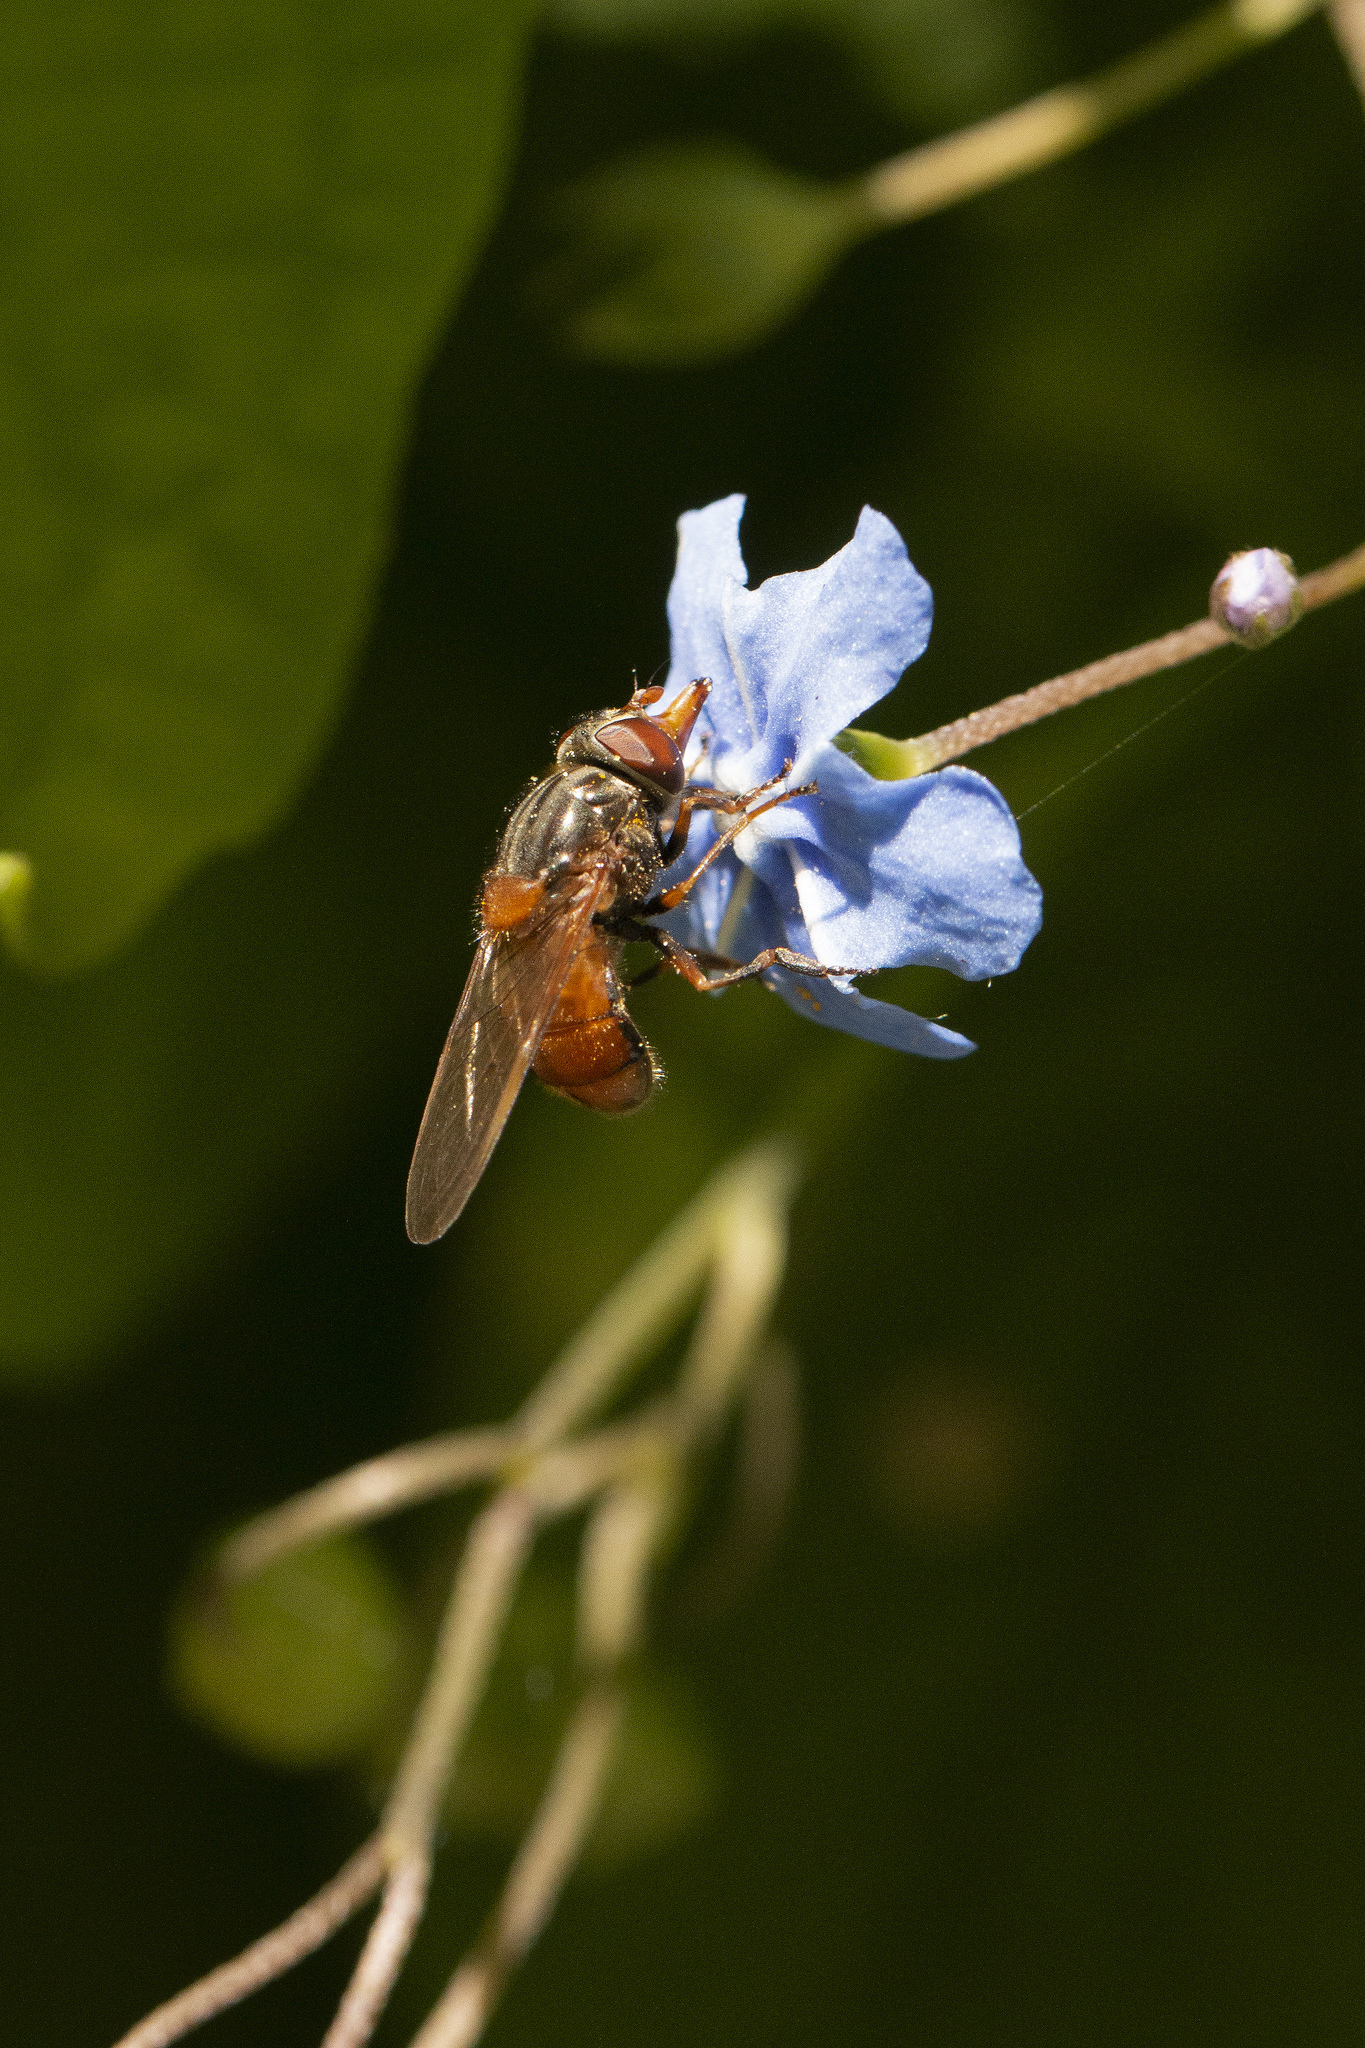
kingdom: Animalia
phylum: Arthropoda
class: Insecta
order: Diptera
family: Syrphidae
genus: Rhingia
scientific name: Rhingia campestris
